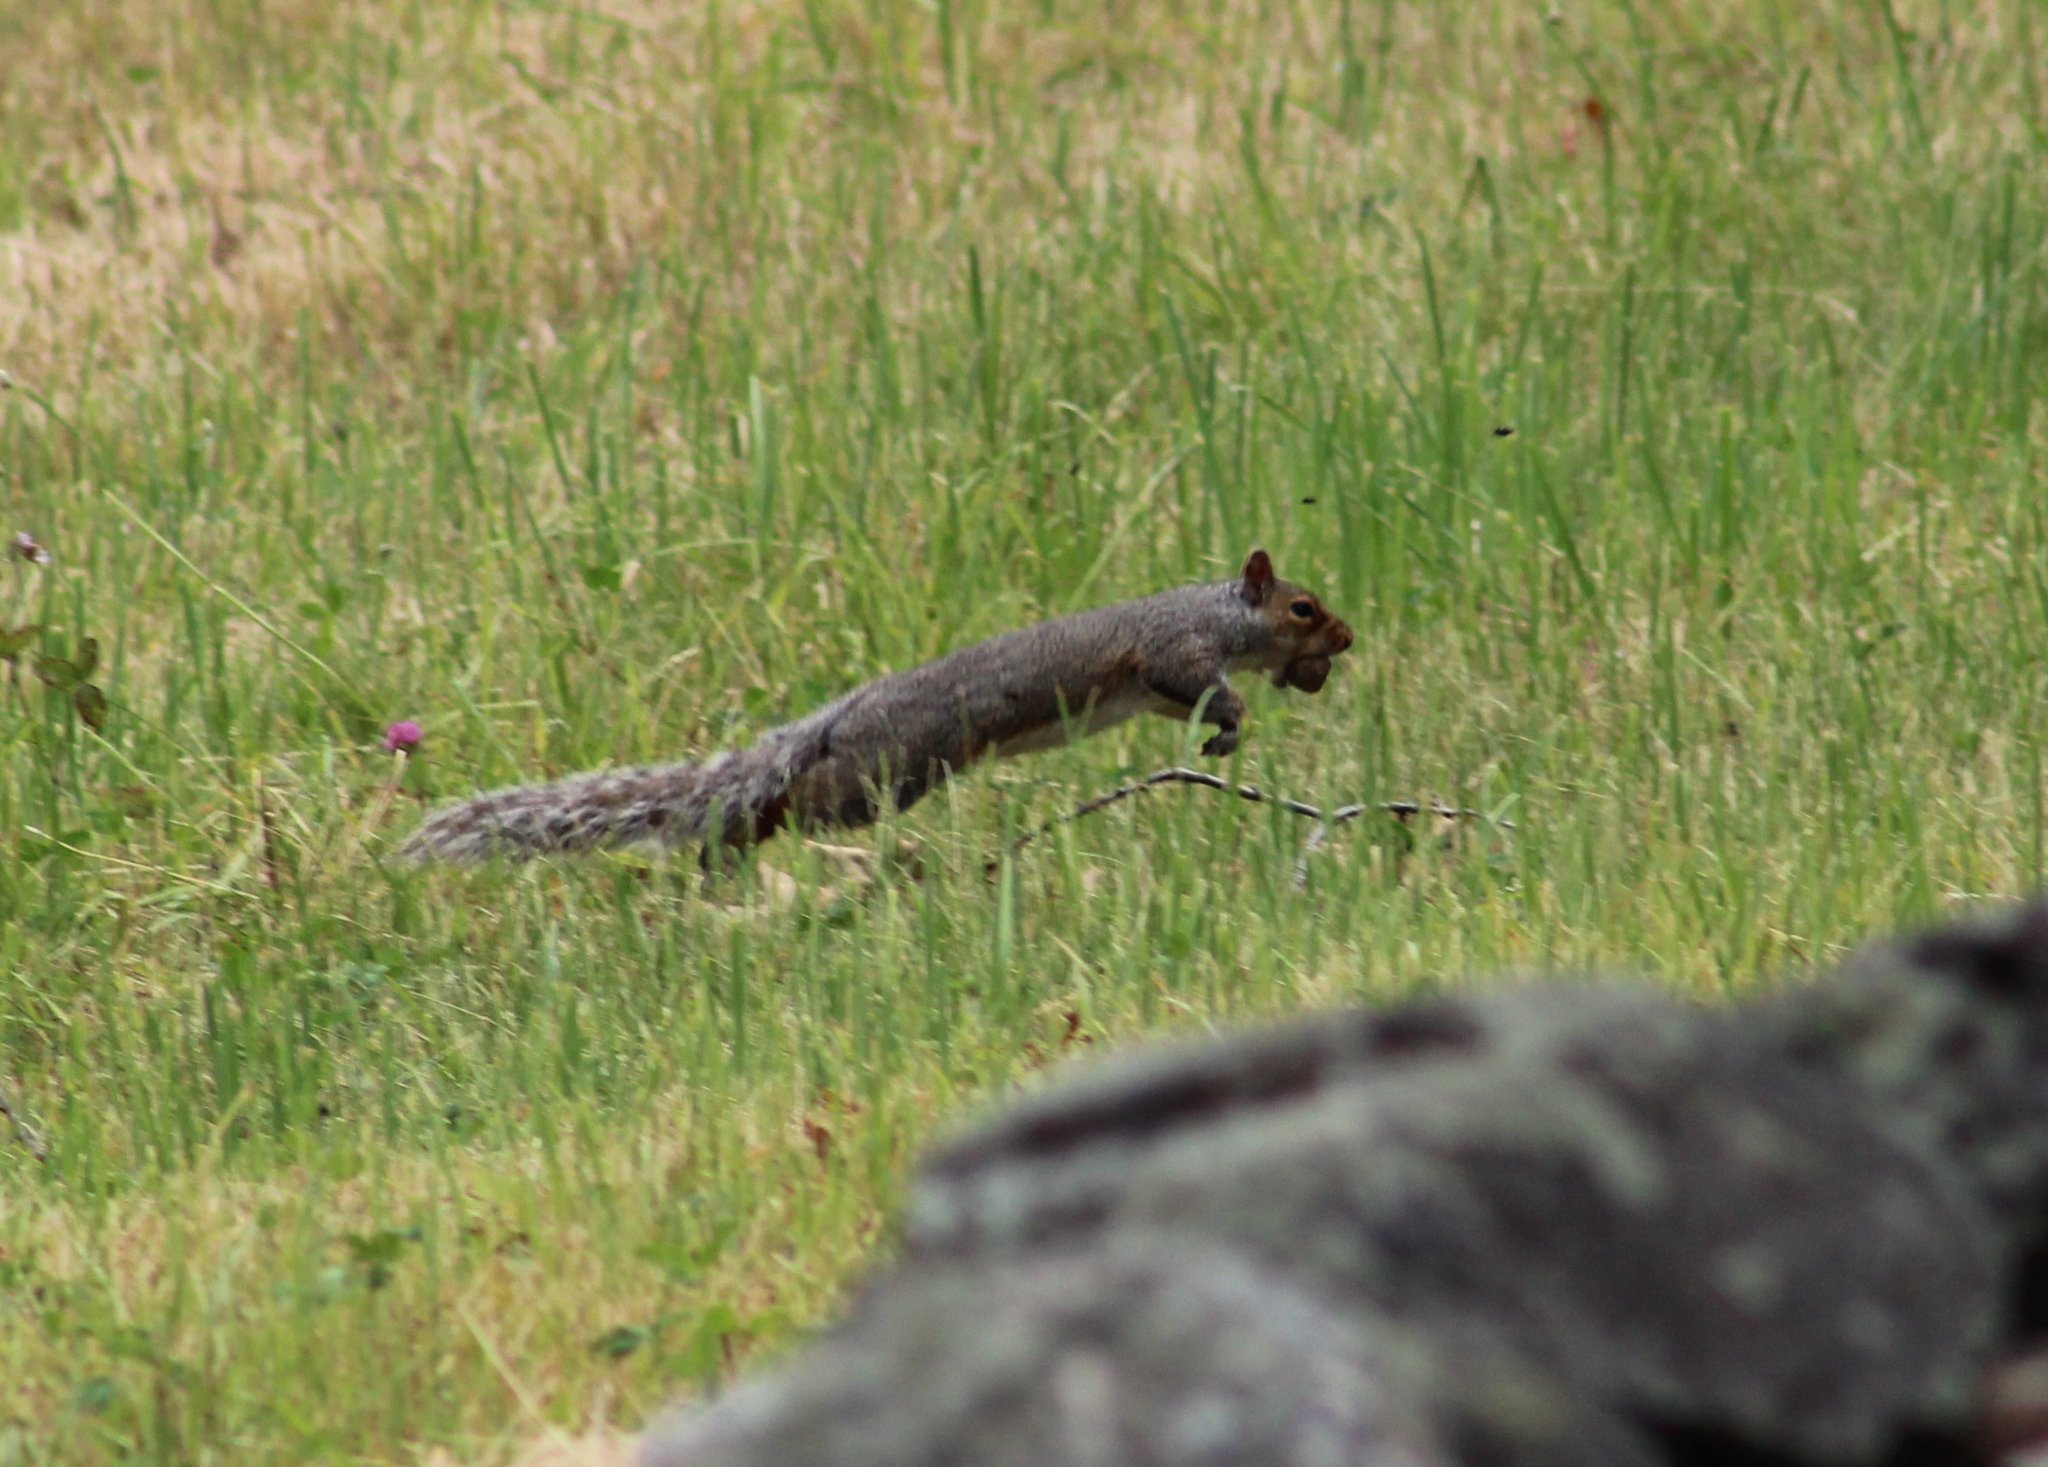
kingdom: Animalia
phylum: Chordata
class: Mammalia
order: Rodentia
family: Sciuridae
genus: Sciurus
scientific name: Sciurus carolinensis
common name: Eastern gray squirrel
